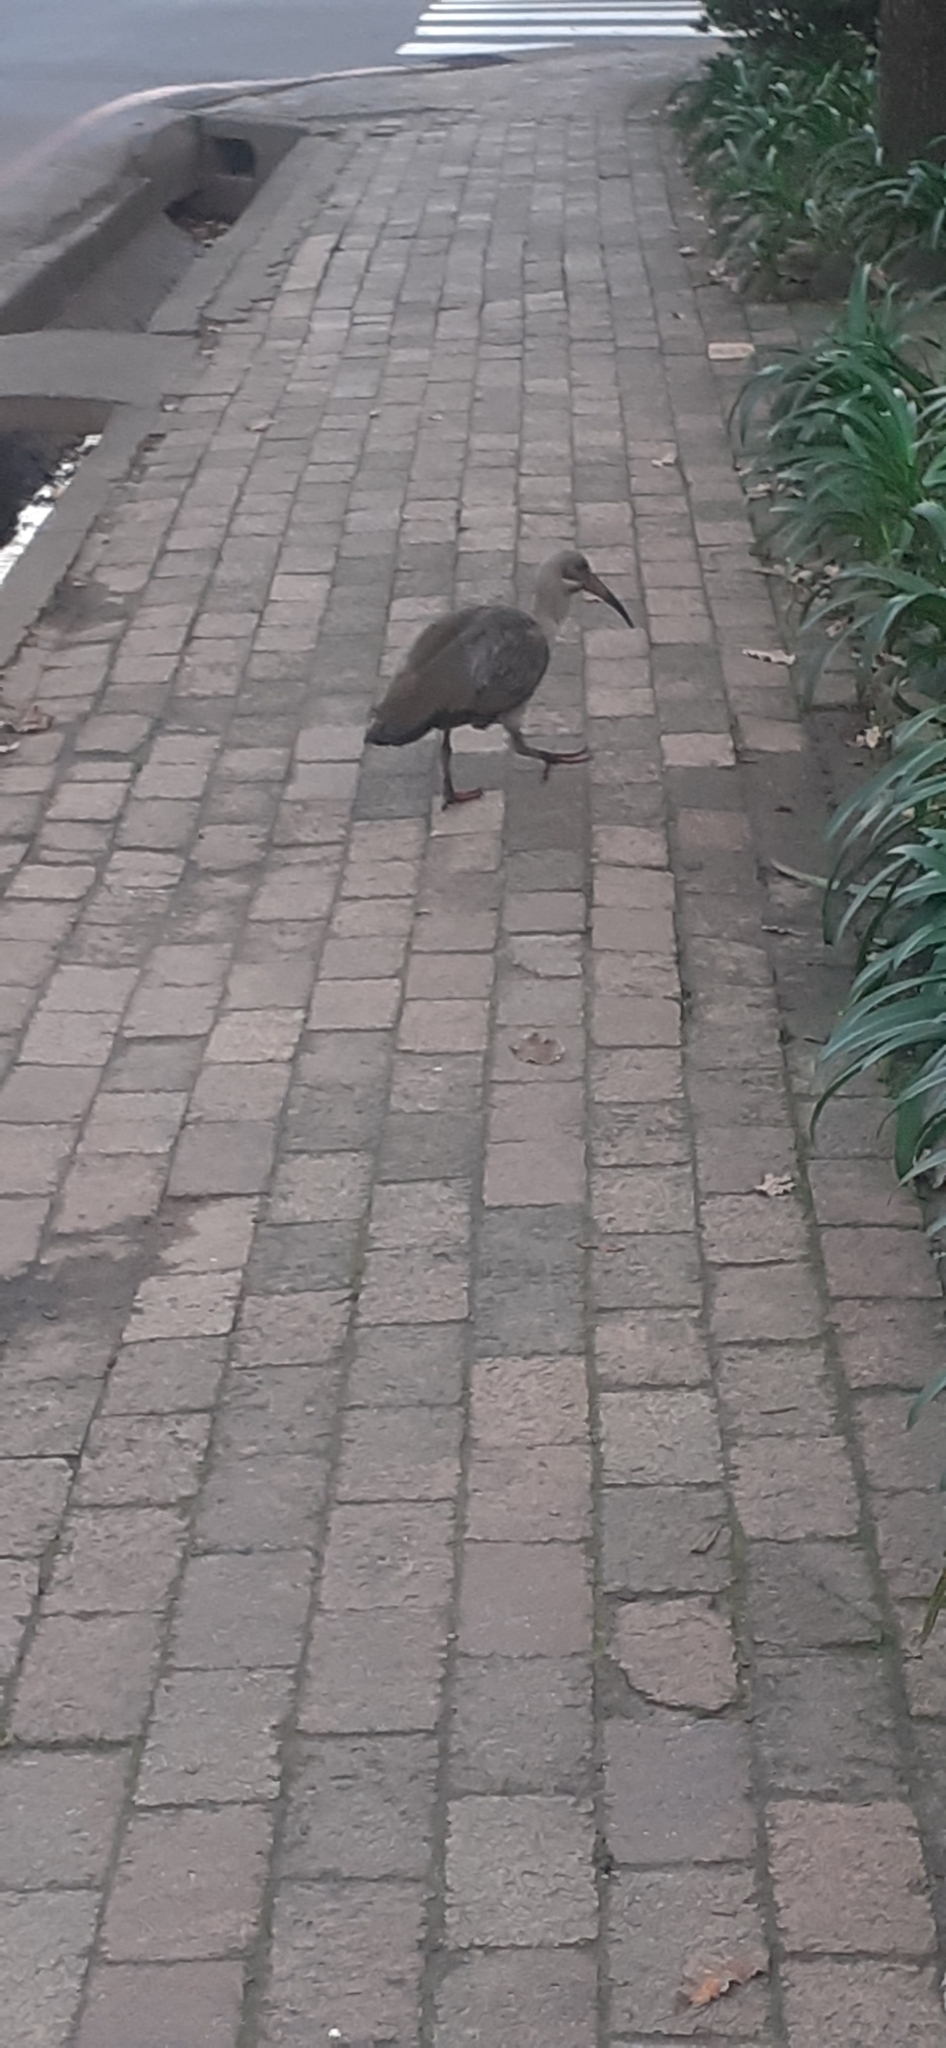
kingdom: Animalia
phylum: Chordata
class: Aves
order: Pelecaniformes
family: Threskiornithidae
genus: Bostrychia
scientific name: Bostrychia hagedash
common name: Hadada ibis
